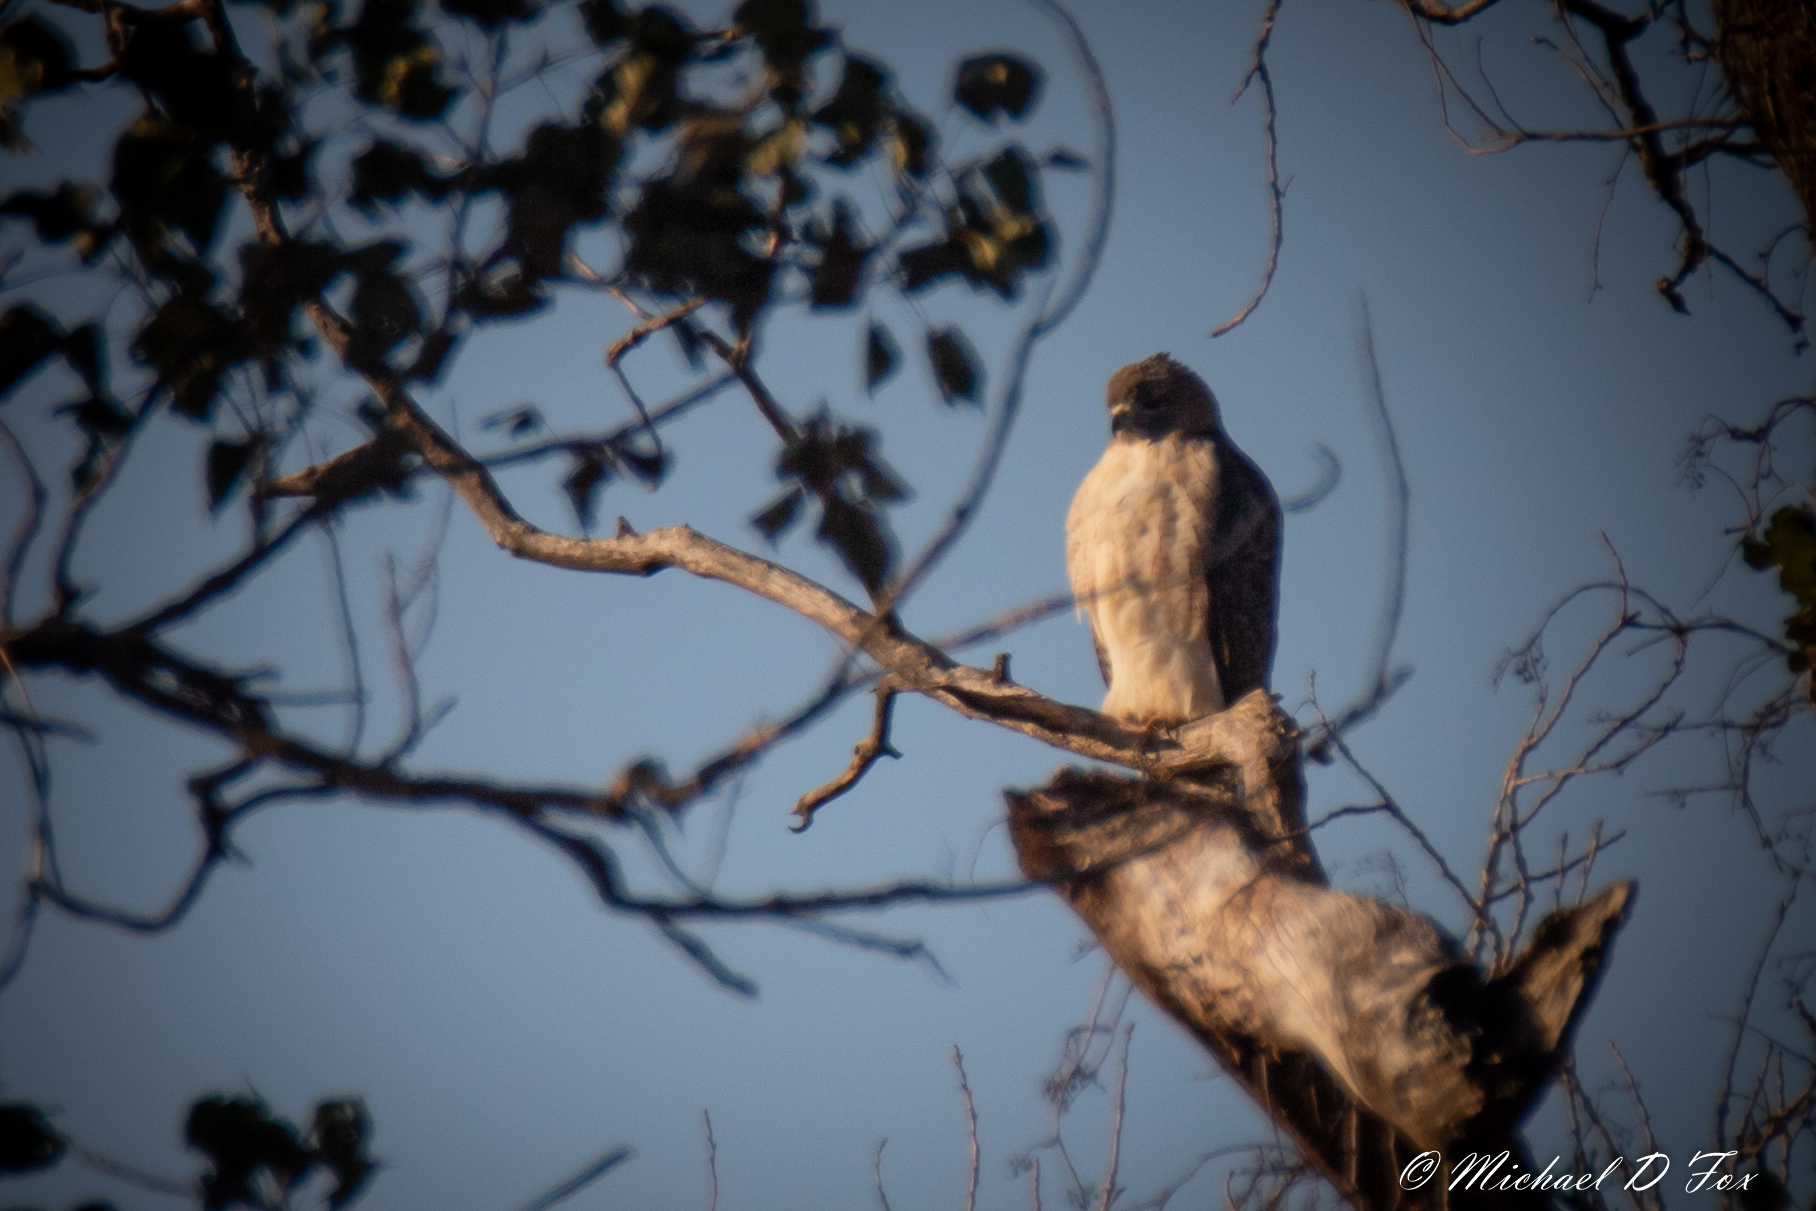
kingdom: Animalia
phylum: Chordata
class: Aves
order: Accipitriformes
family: Accipitridae
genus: Buteo
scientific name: Buteo jamaicensis
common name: Red-tailed hawk
